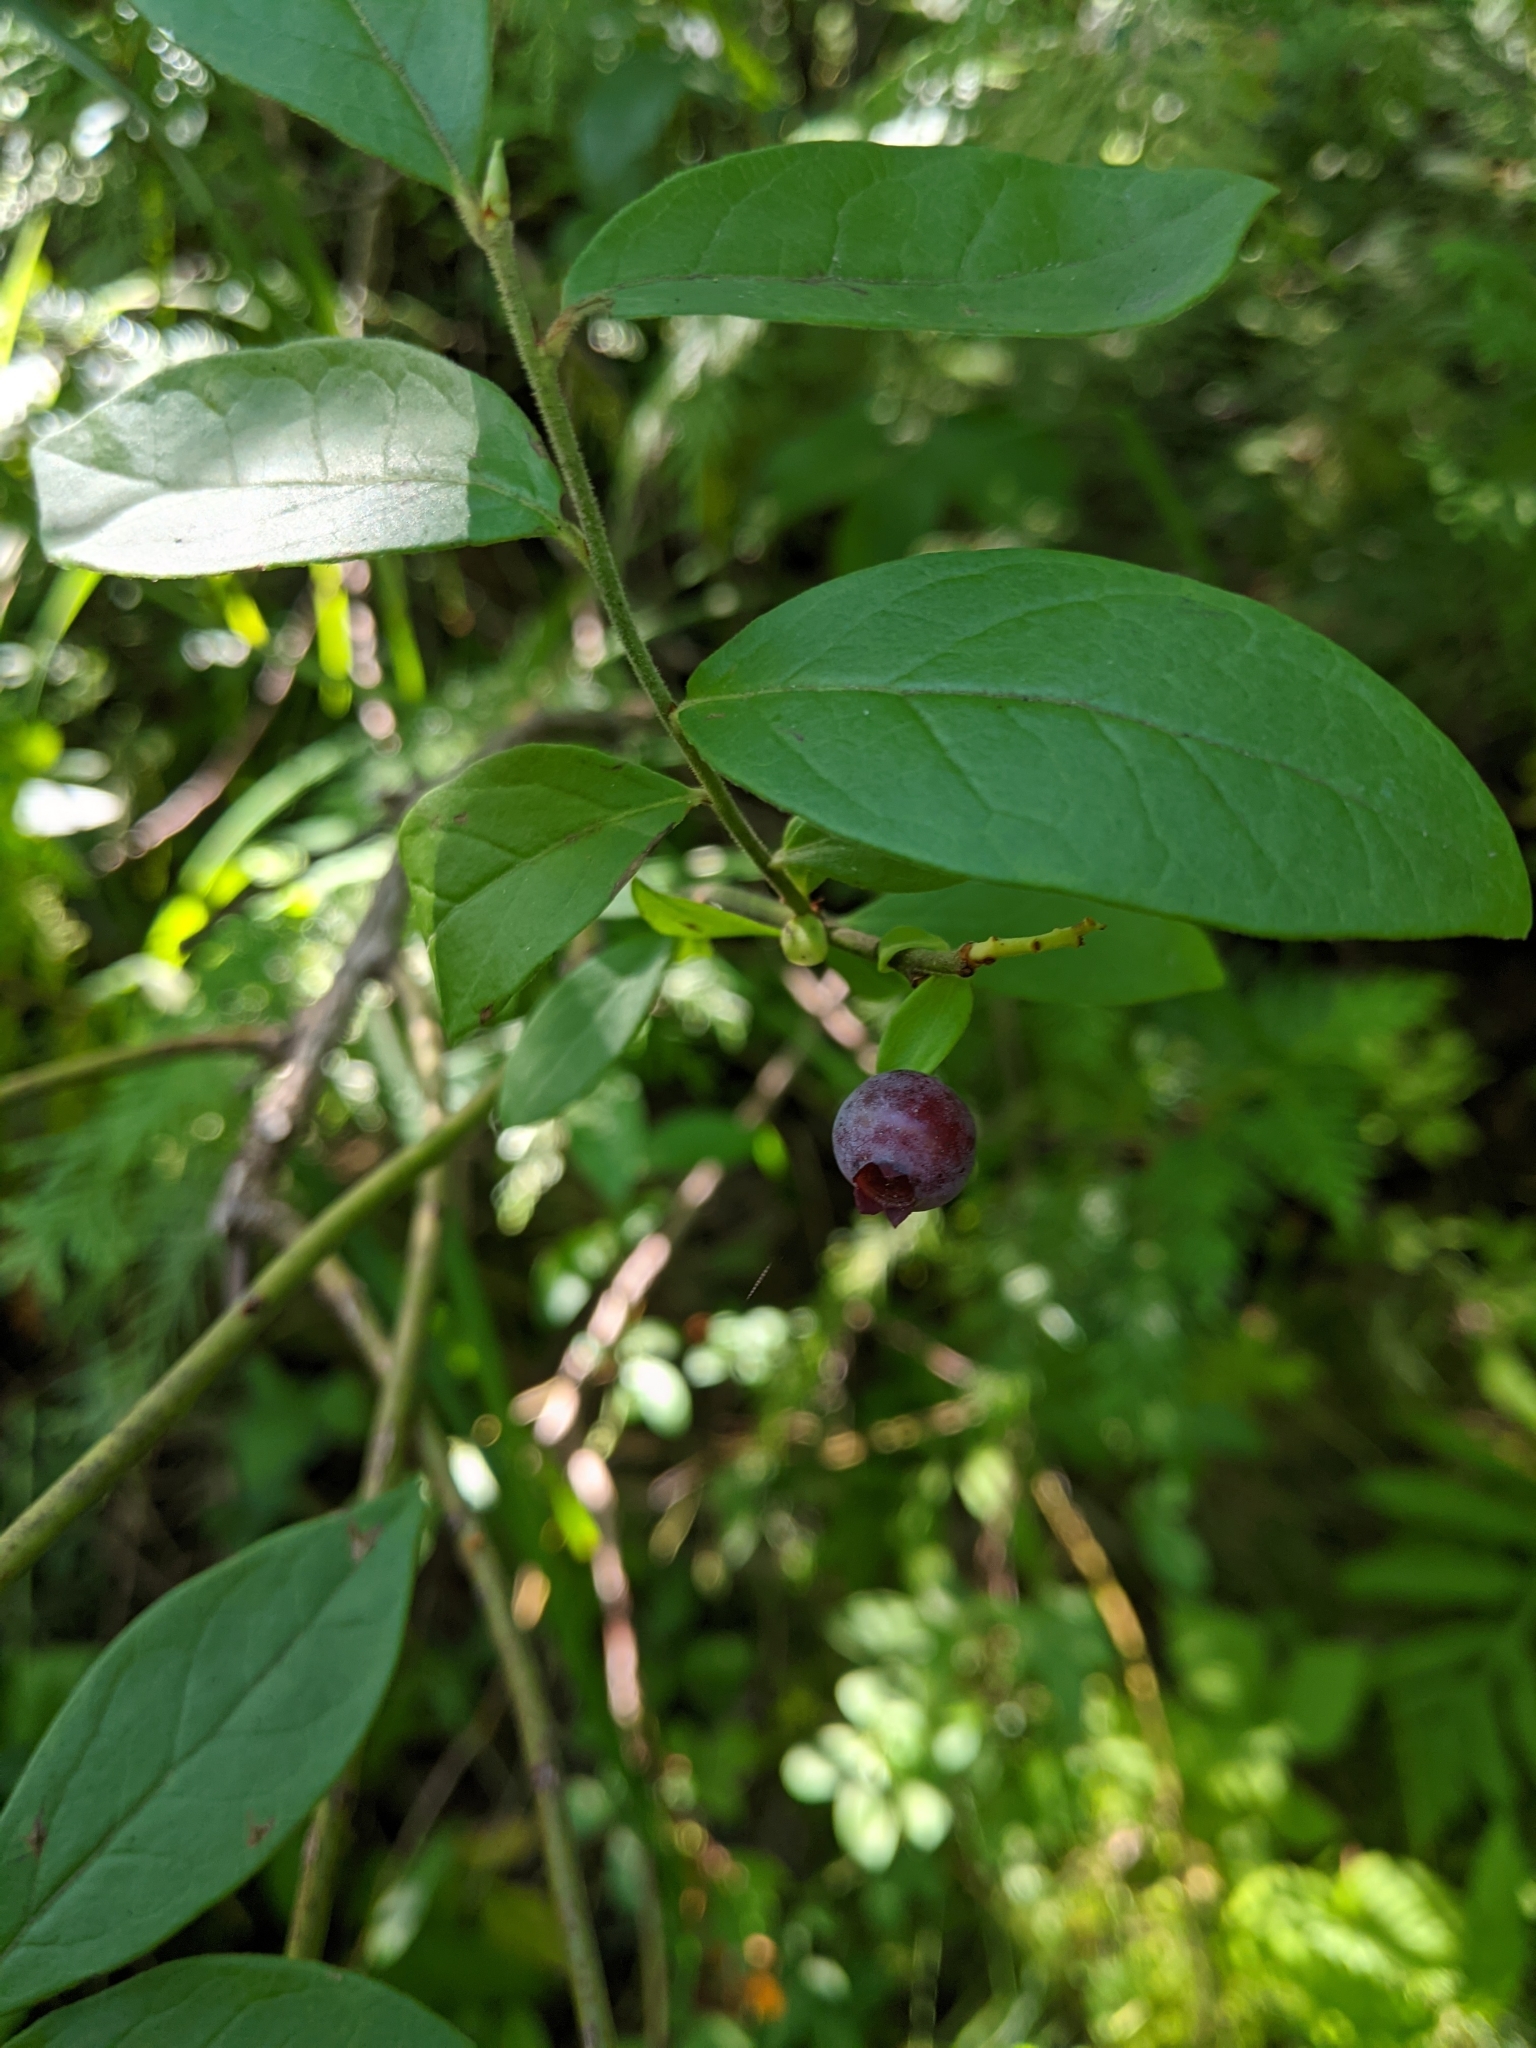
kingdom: Plantae
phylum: Tracheophyta
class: Magnoliopsida
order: Ericales
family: Ericaceae
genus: Vaccinium
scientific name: Vaccinium corymbosum
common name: Blueberry
